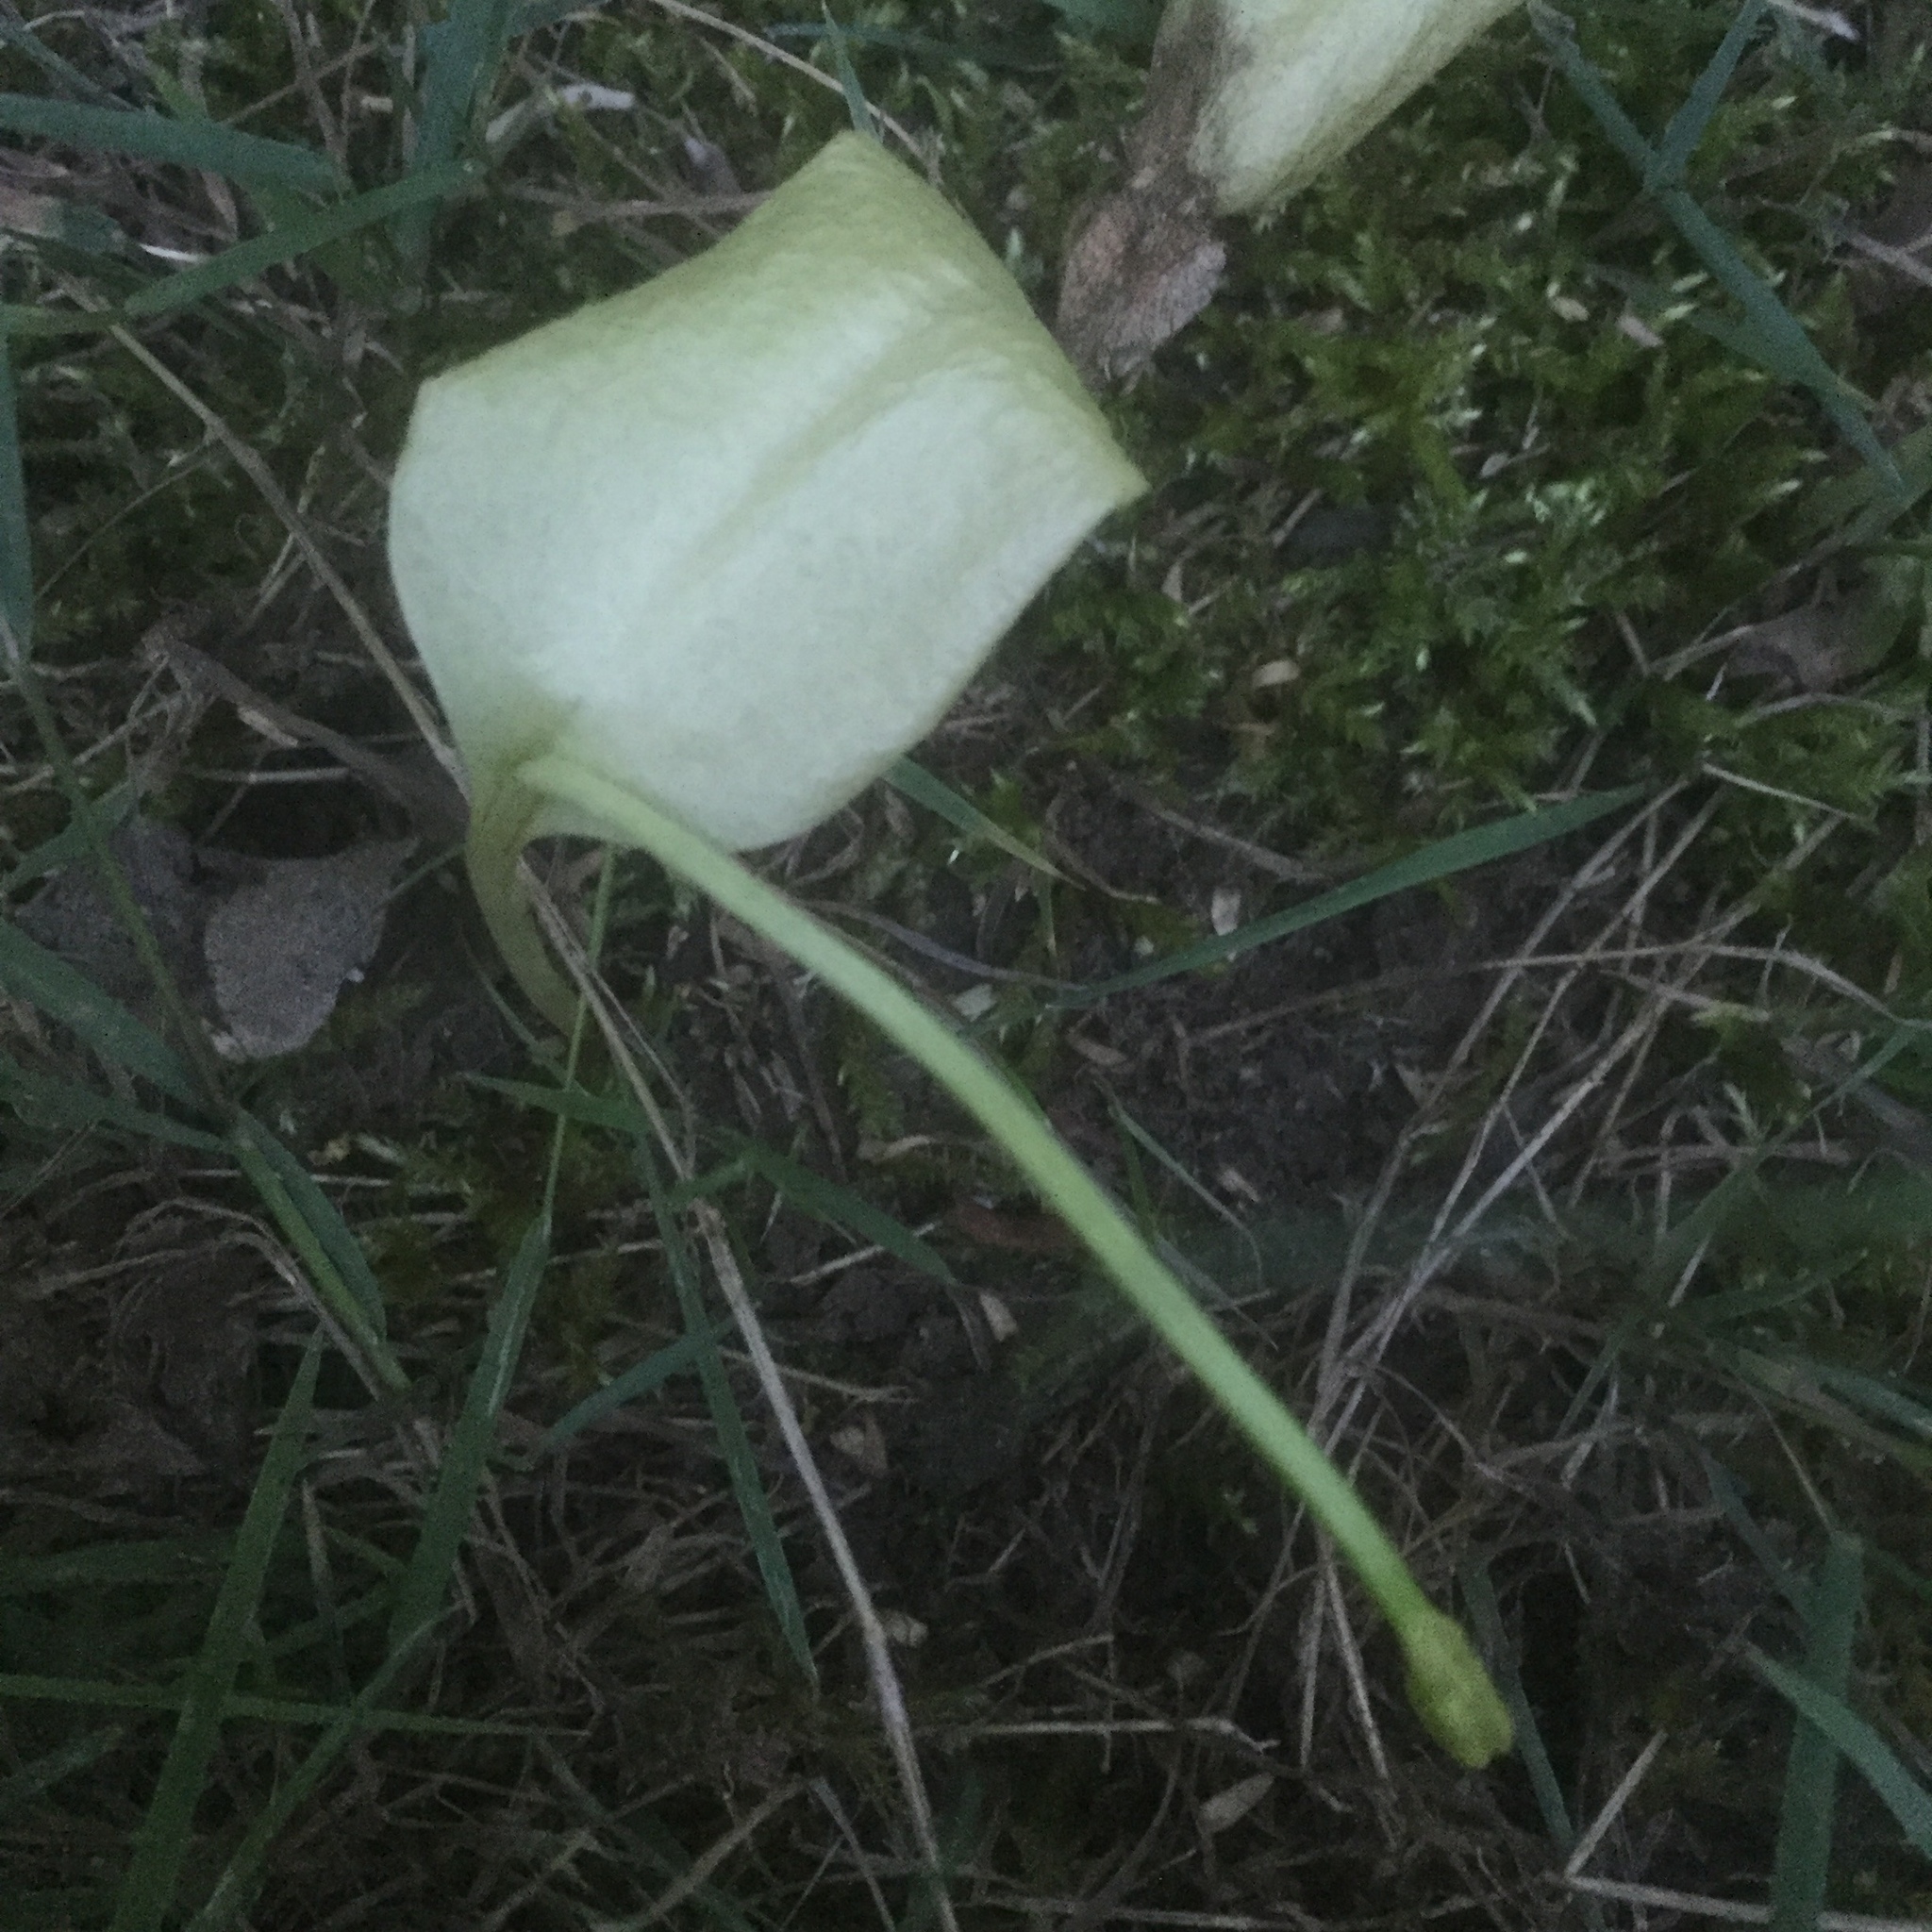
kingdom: Plantae
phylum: Tracheophyta
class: Polypodiopsida
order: Ophioglossales
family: Ophioglossaceae
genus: Ophioglossum
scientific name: Ophioglossum vulgatum
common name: Adder's-tongue
